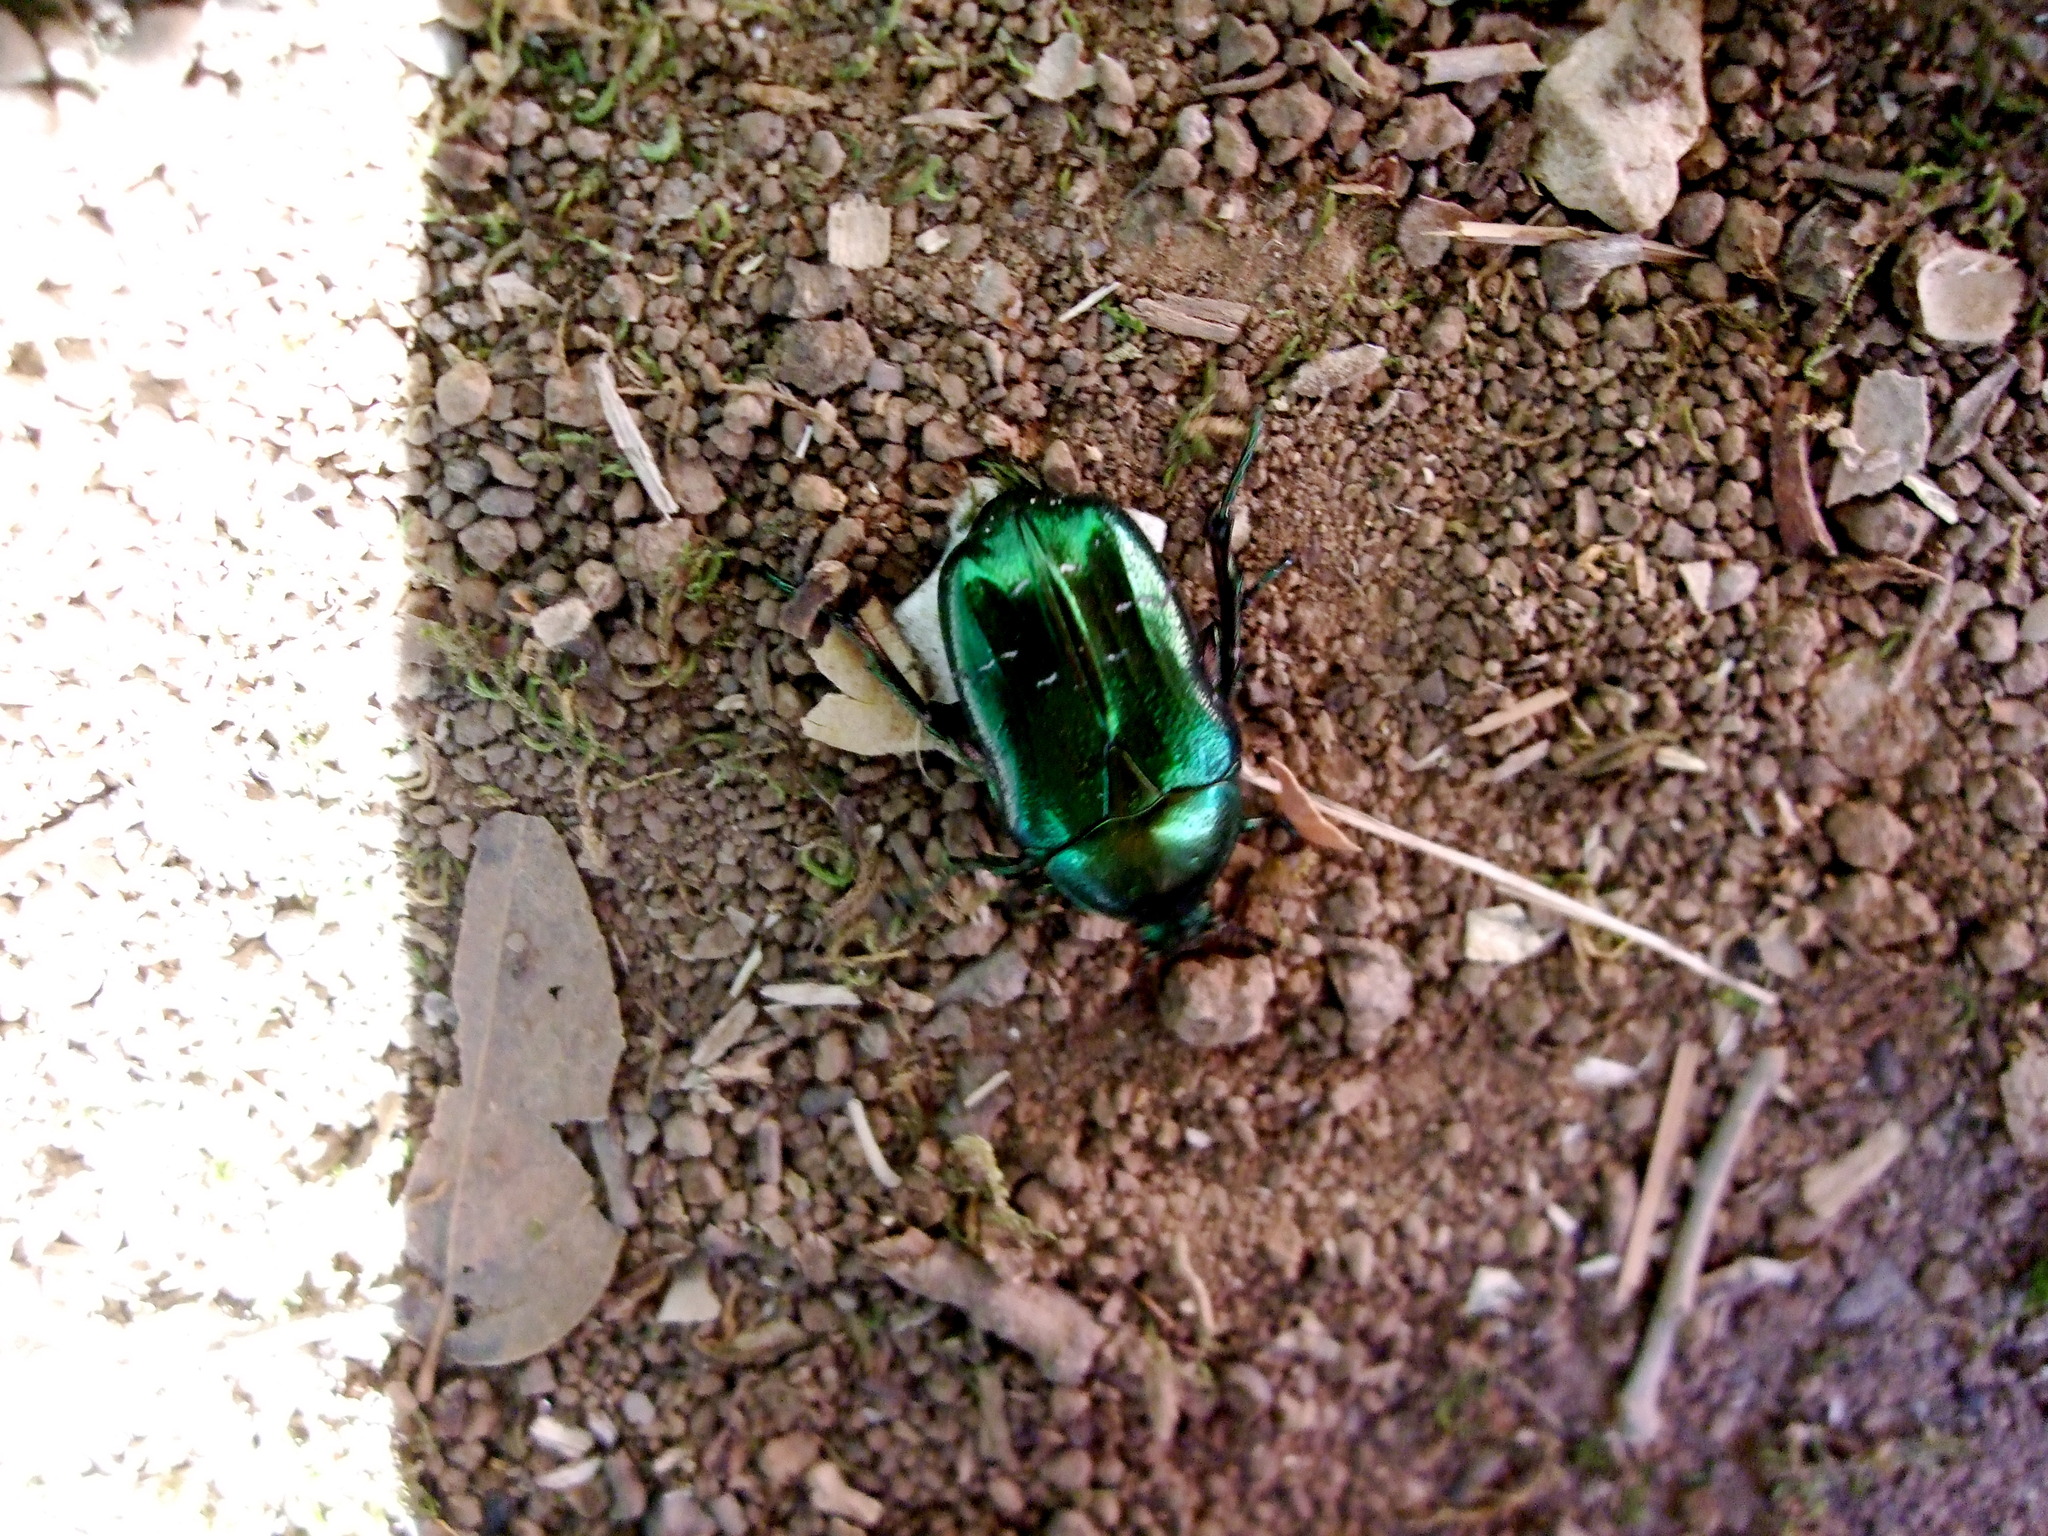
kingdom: Animalia
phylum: Arthropoda
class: Insecta
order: Coleoptera
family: Scarabaeidae
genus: Cetonia
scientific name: Cetonia aurata
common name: Rose chafer
